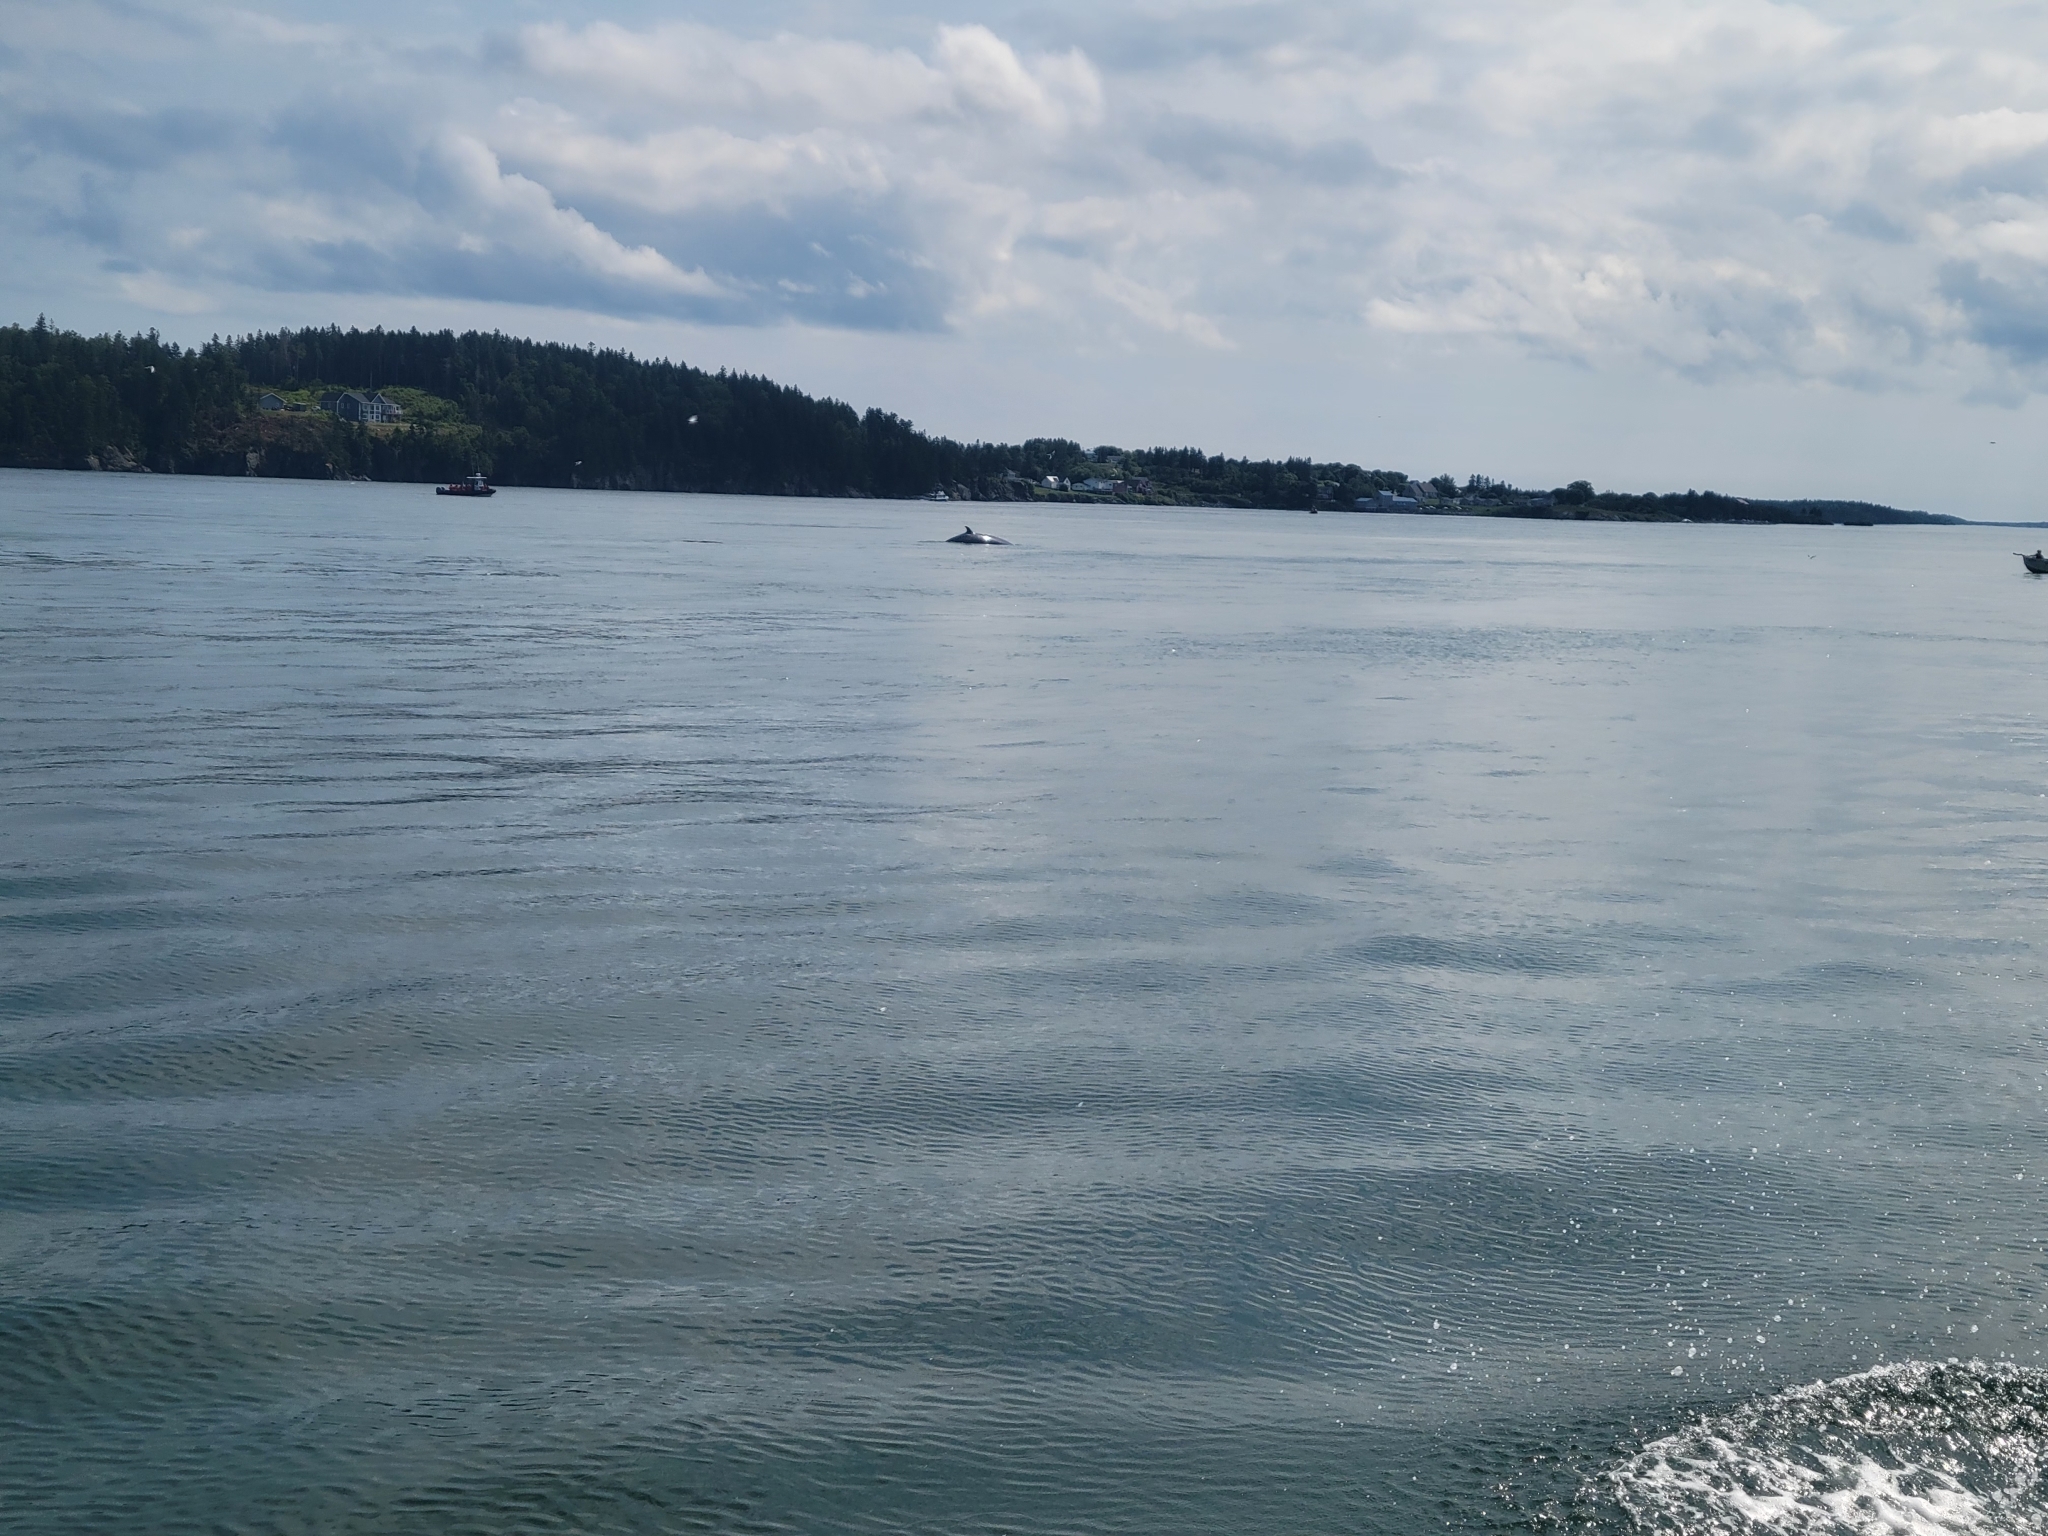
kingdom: Animalia
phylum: Chordata
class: Mammalia
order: Cetacea
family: Balaenopteridae
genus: Balaenoptera
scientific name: Balaenoptera acutorostrata
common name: Common minke whale
